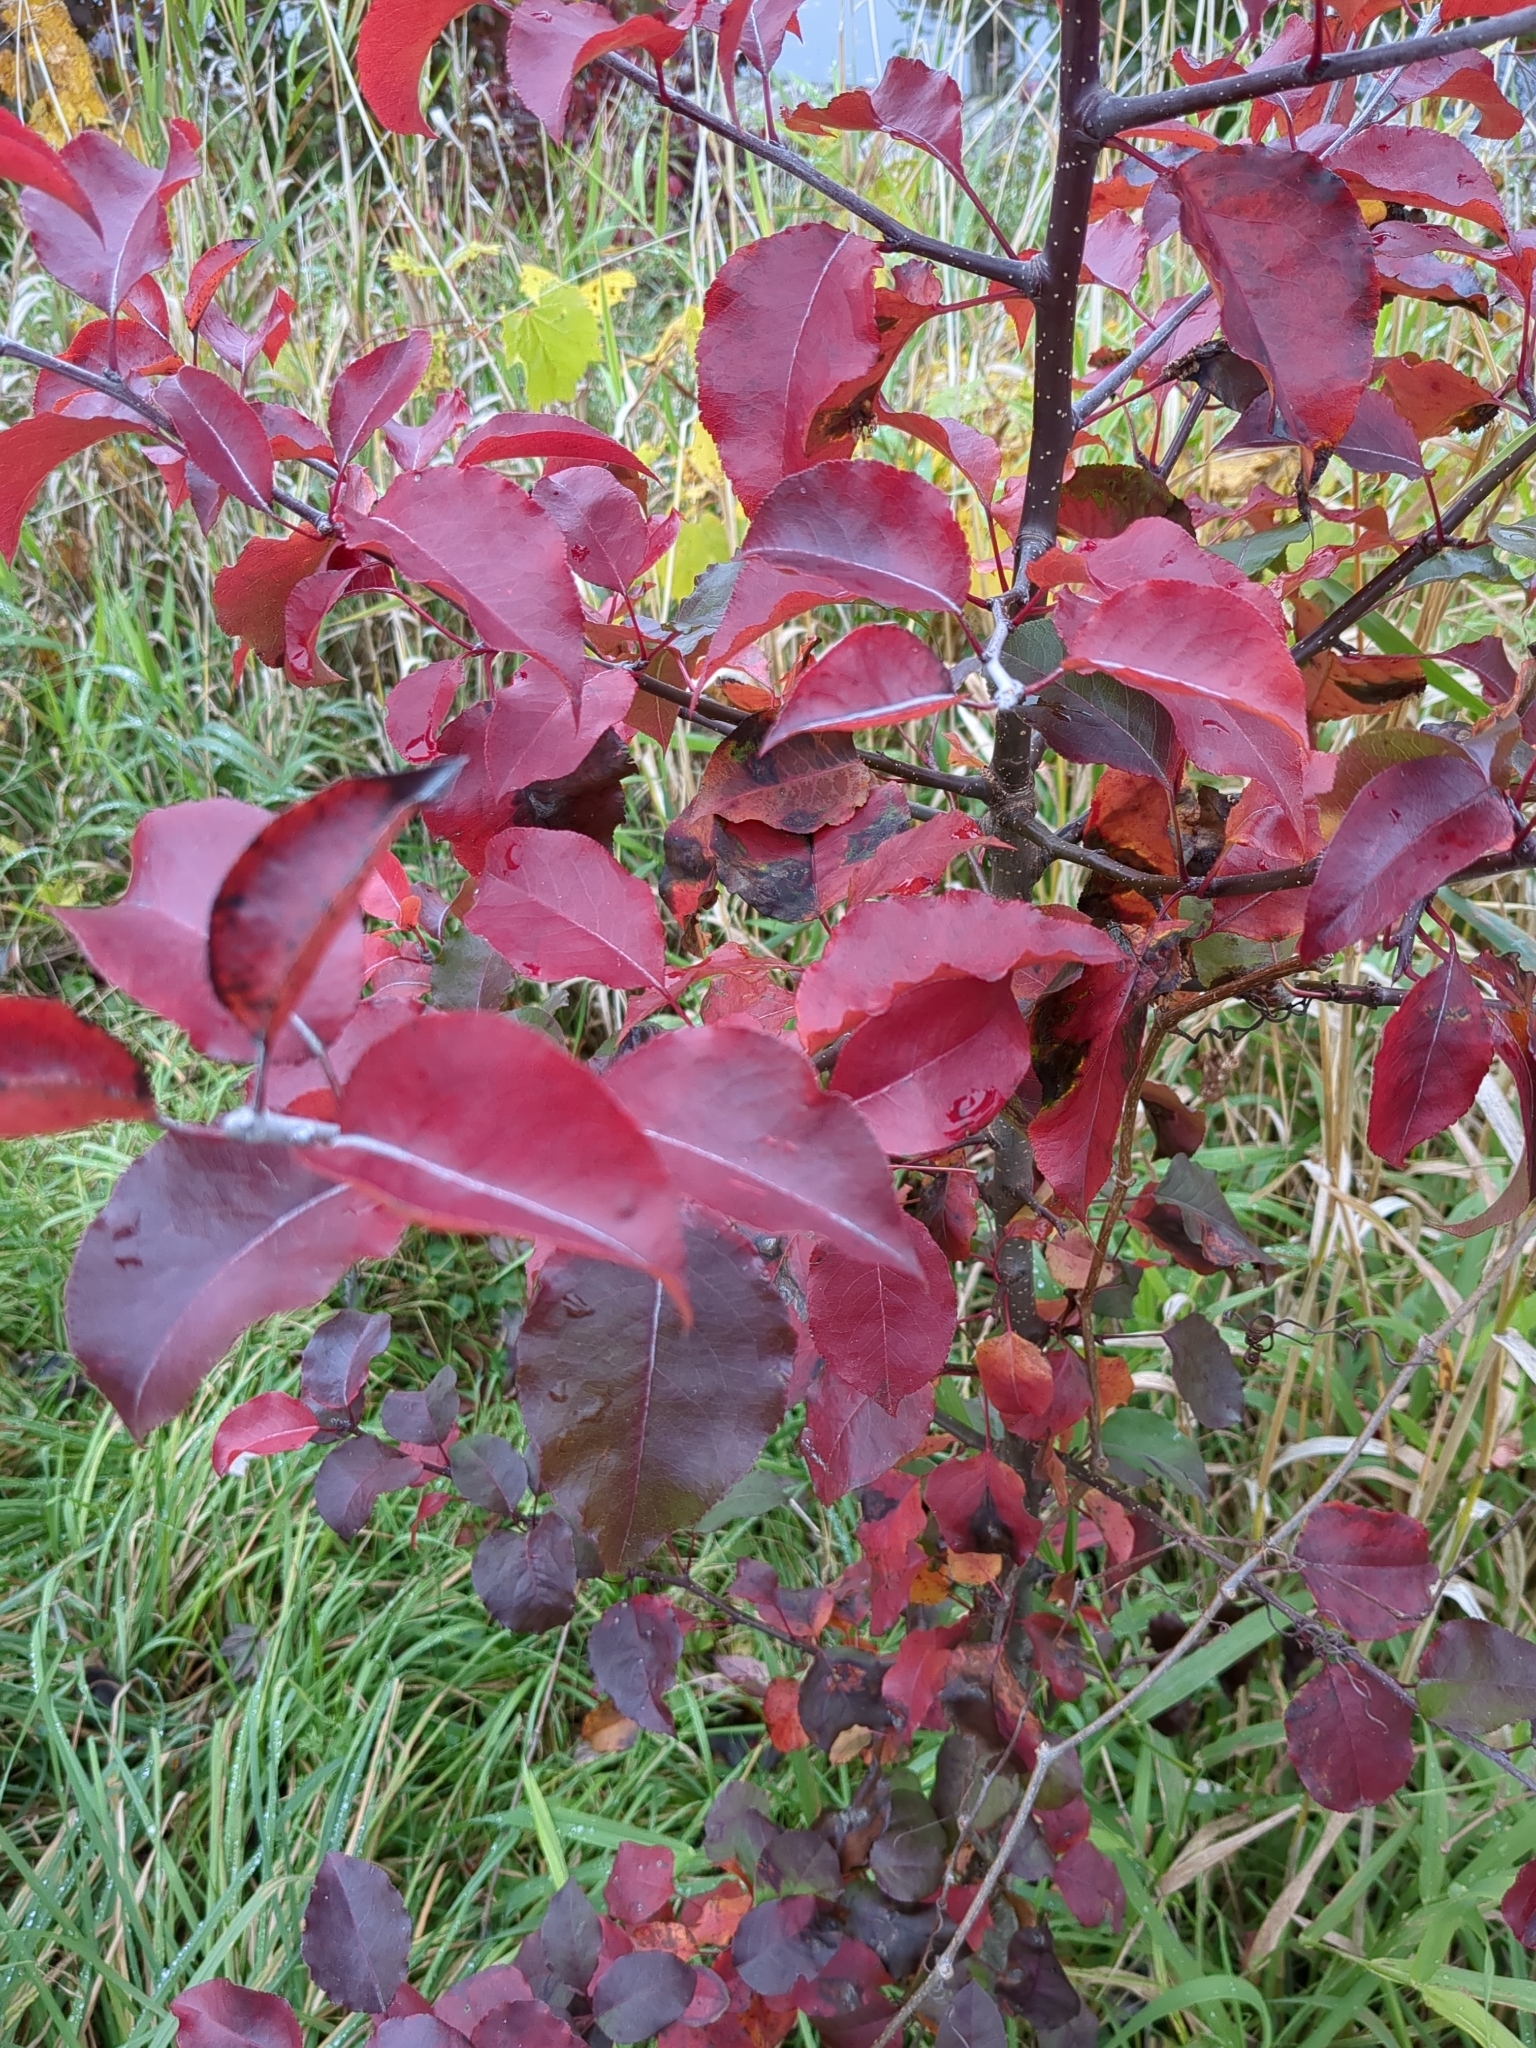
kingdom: Plantae
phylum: Tracheophyta
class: Magnoliopsida
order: Rosales
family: Rosaceae
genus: Pyrus
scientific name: Pyrus calleryana
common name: Callery pear
